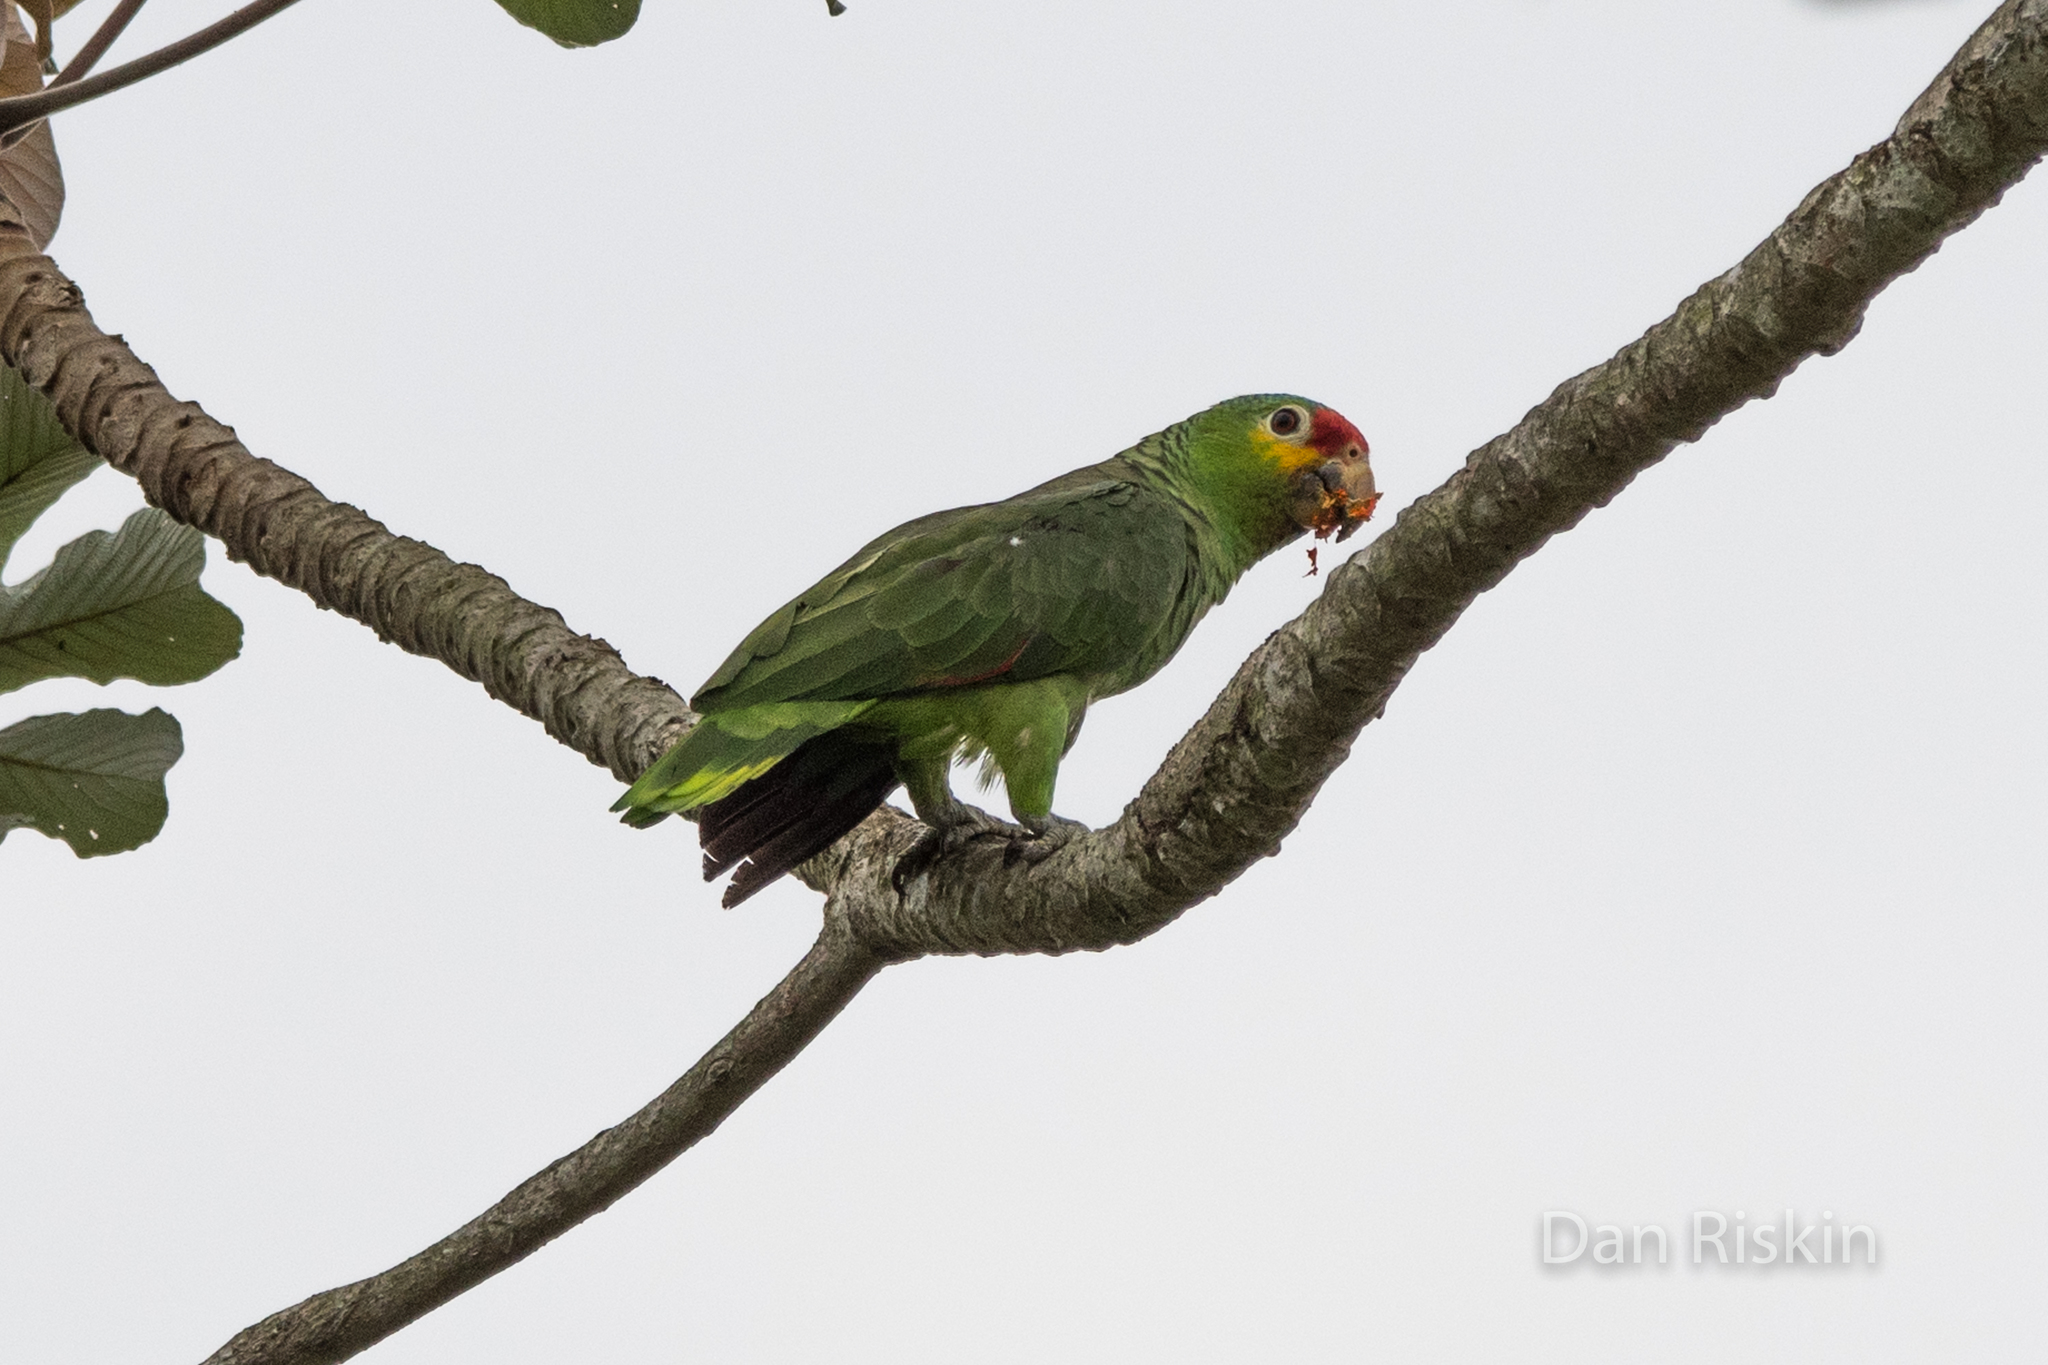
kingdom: Animalia
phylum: Chordata
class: Aves
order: Psittaciformes
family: Psittacidae
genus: Amazona
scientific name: Amazona autumnalis
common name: Red-lored amazon
